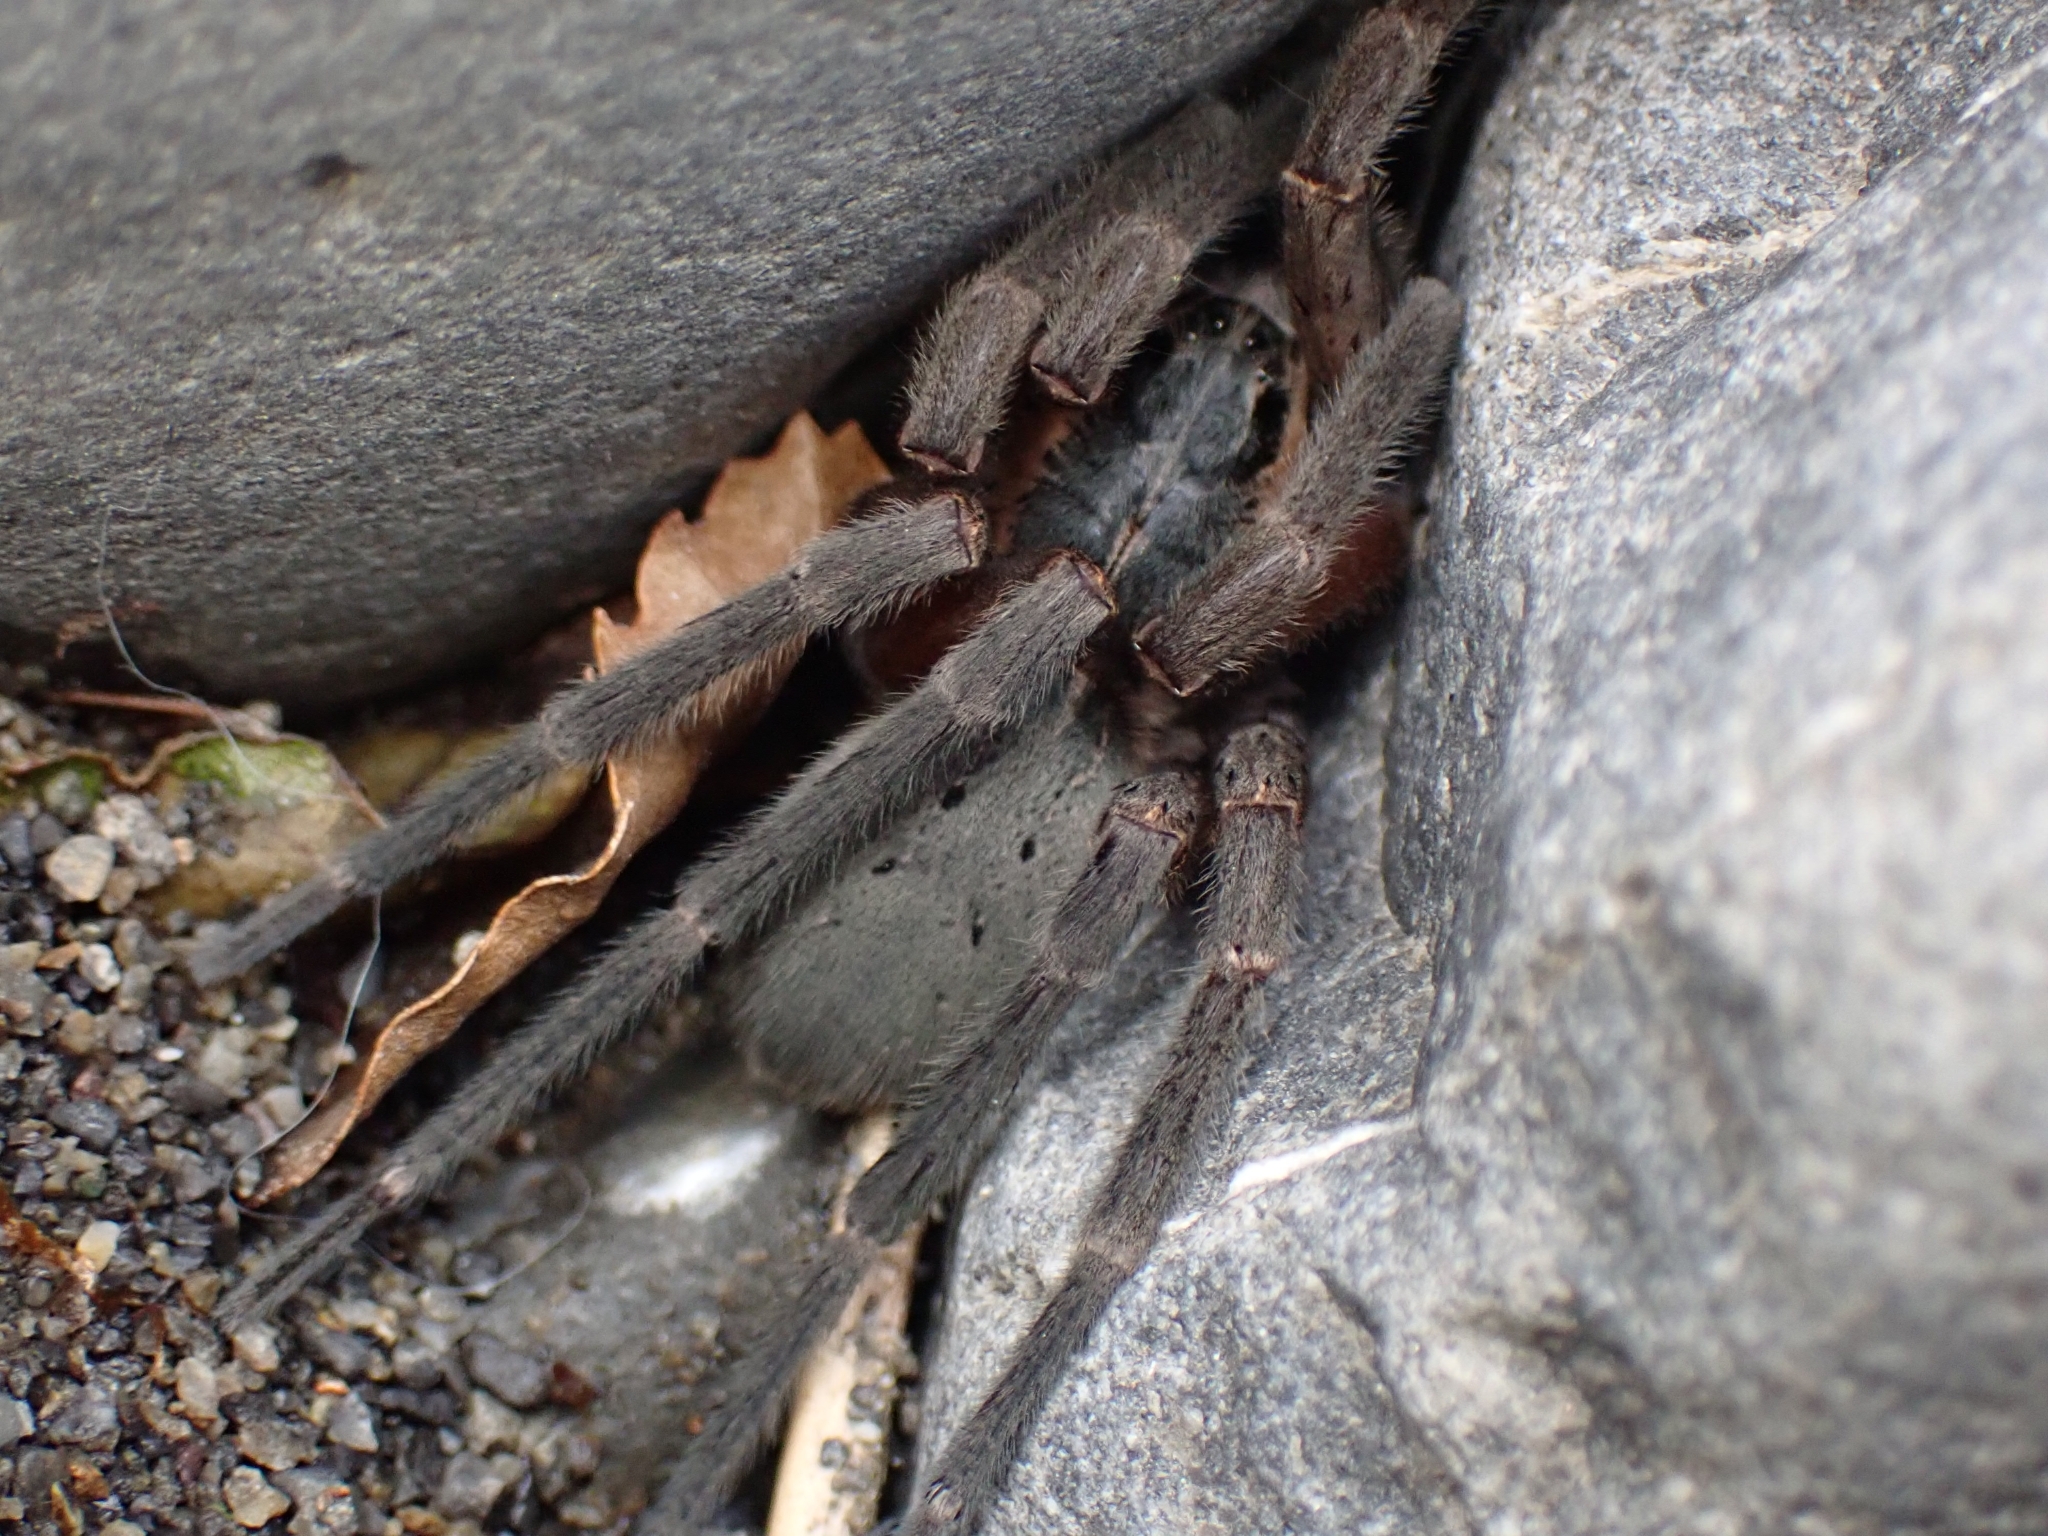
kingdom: Animalia
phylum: Arthropoda
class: Arachnida
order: Araneae
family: Pisauridae
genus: Dolomedes
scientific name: Dolomedes aquaticus
